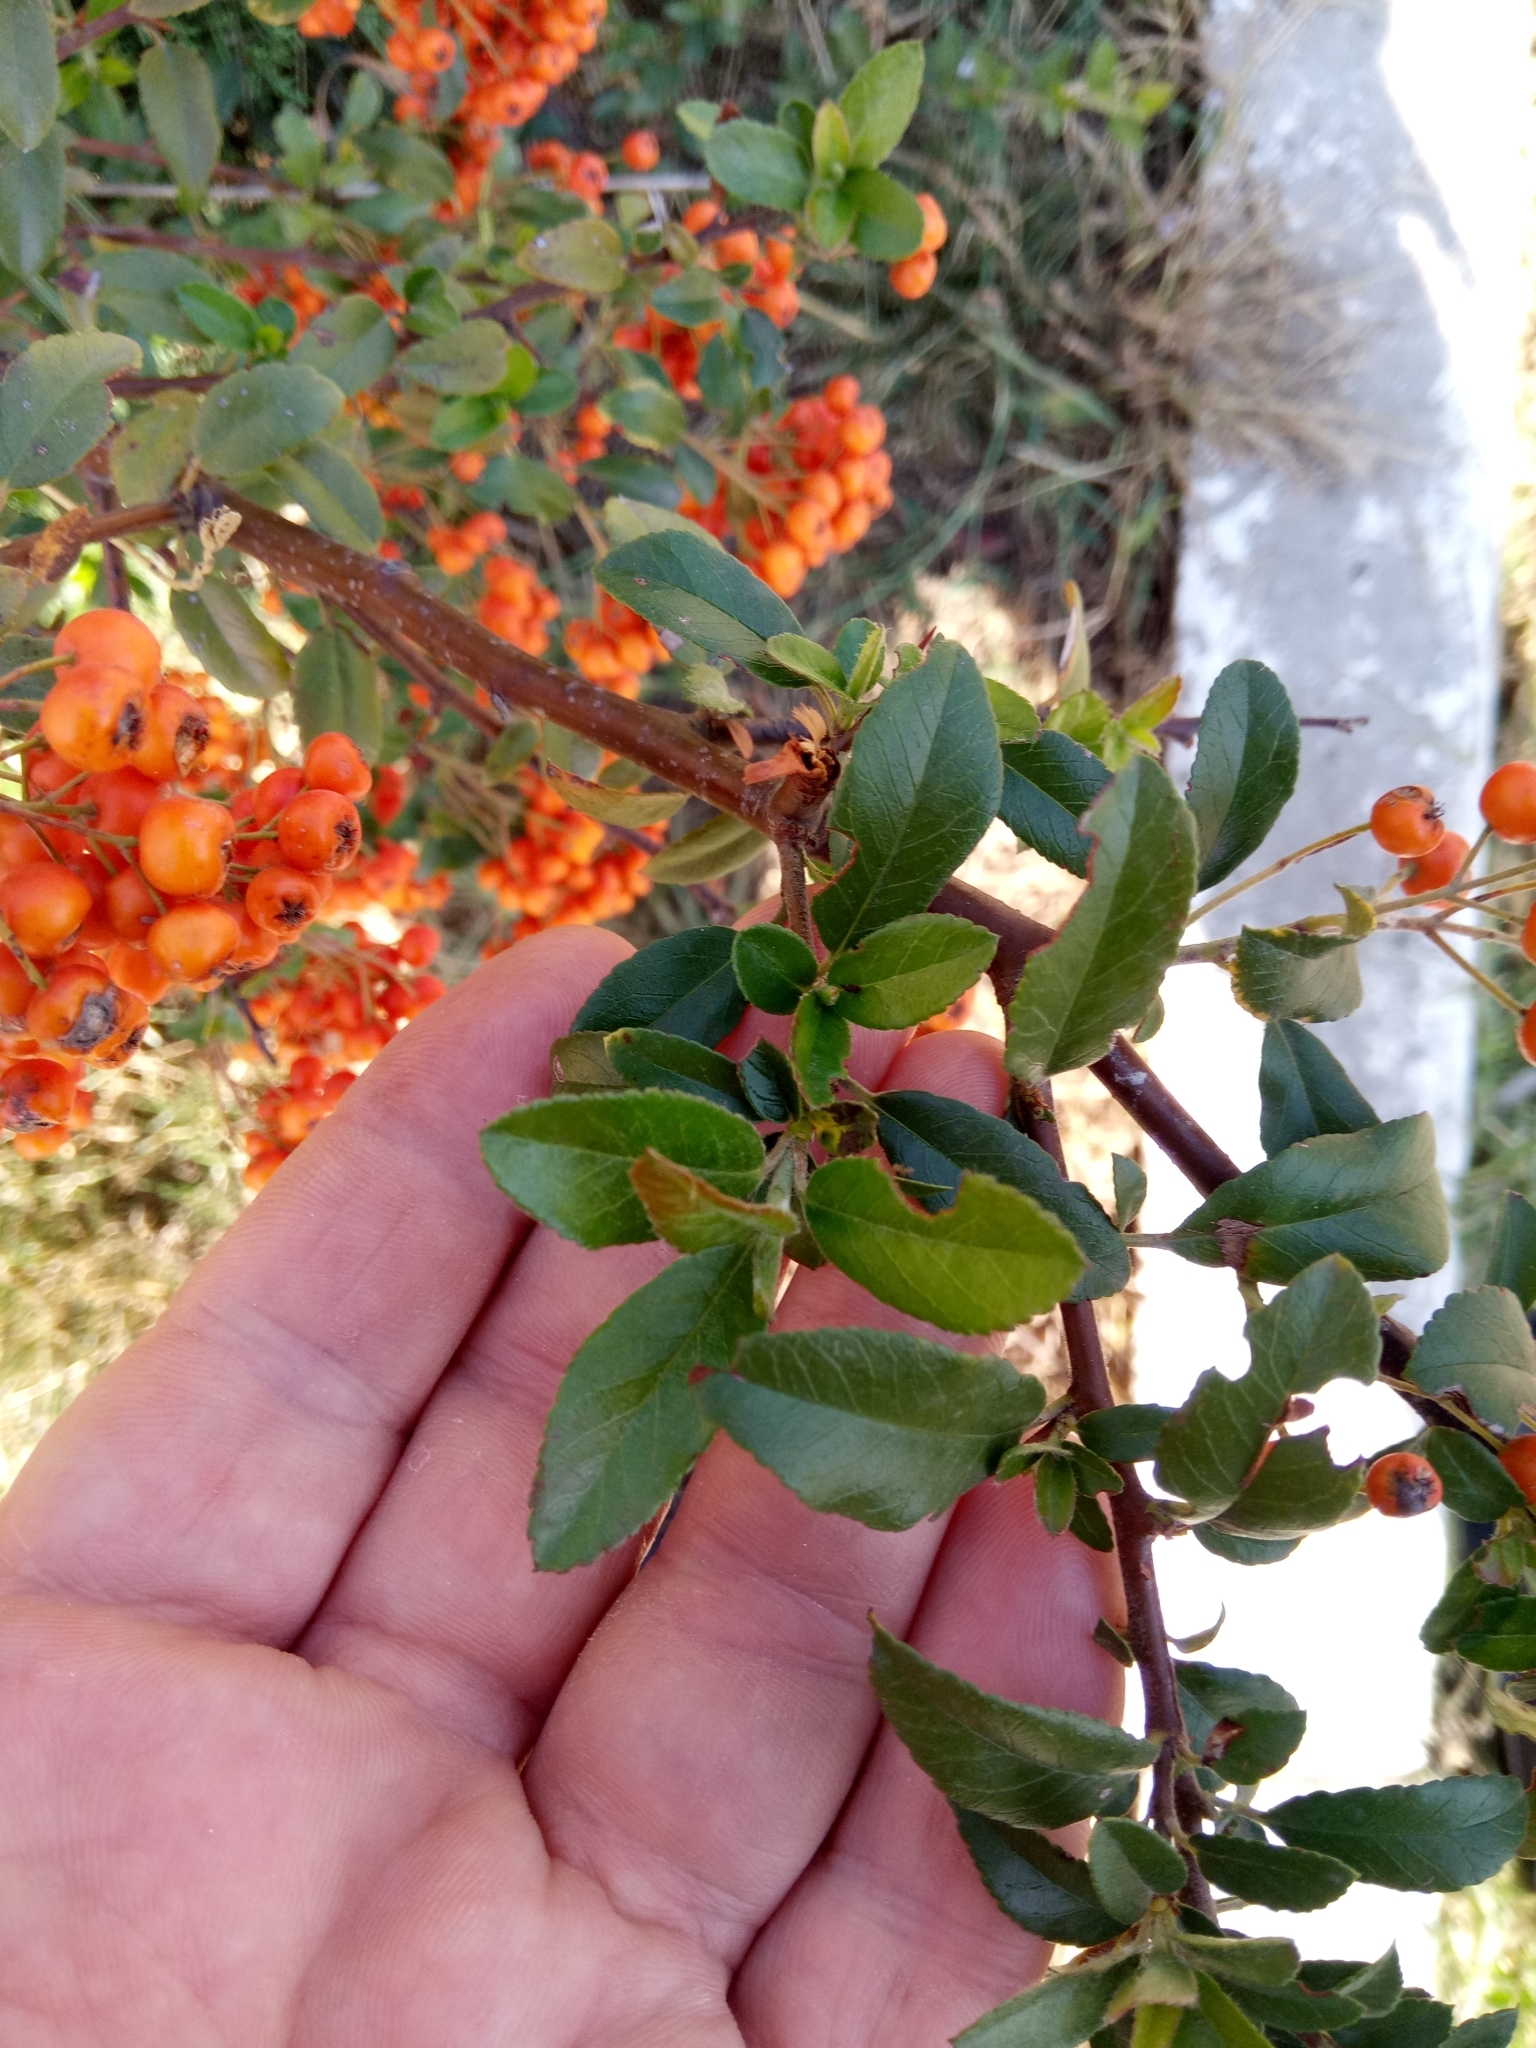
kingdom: Plantae
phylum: Tracheophyta
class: Magnoliopsida
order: Rosales
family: Rosaceae
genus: Pyracantha
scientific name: Pyracantha coccinea
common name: Firethorn
